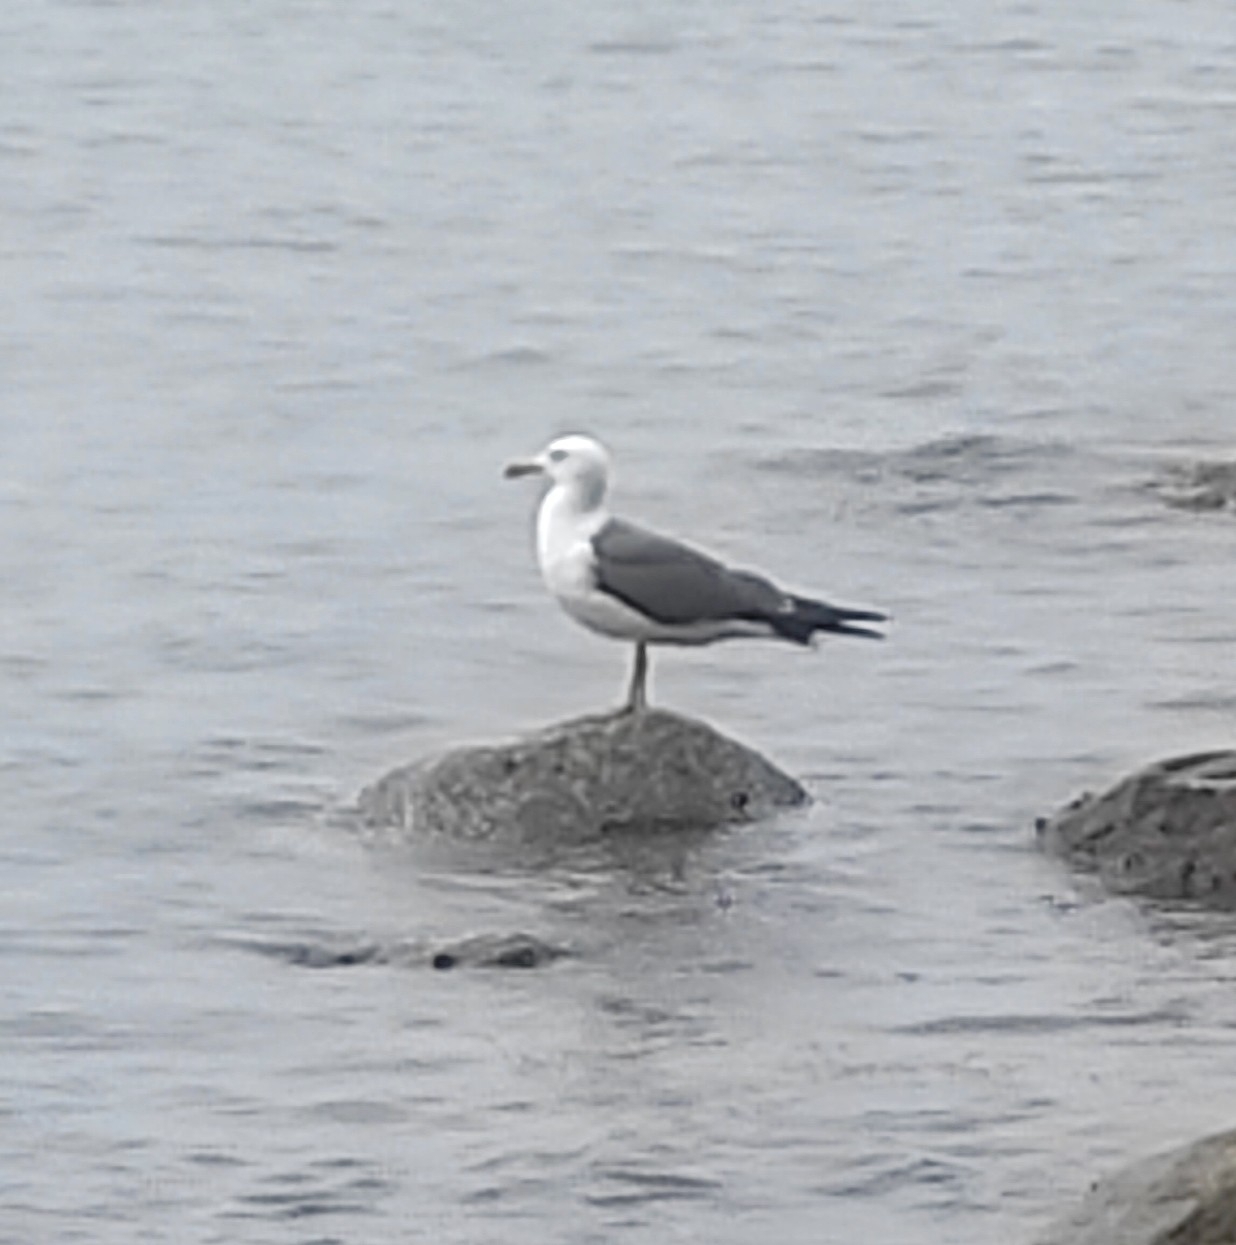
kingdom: Animalia
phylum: Chordata
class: Aves
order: Charadriiformes
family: Laridae
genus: Larus
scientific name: Larus crassirostris
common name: Black-tailed gull
